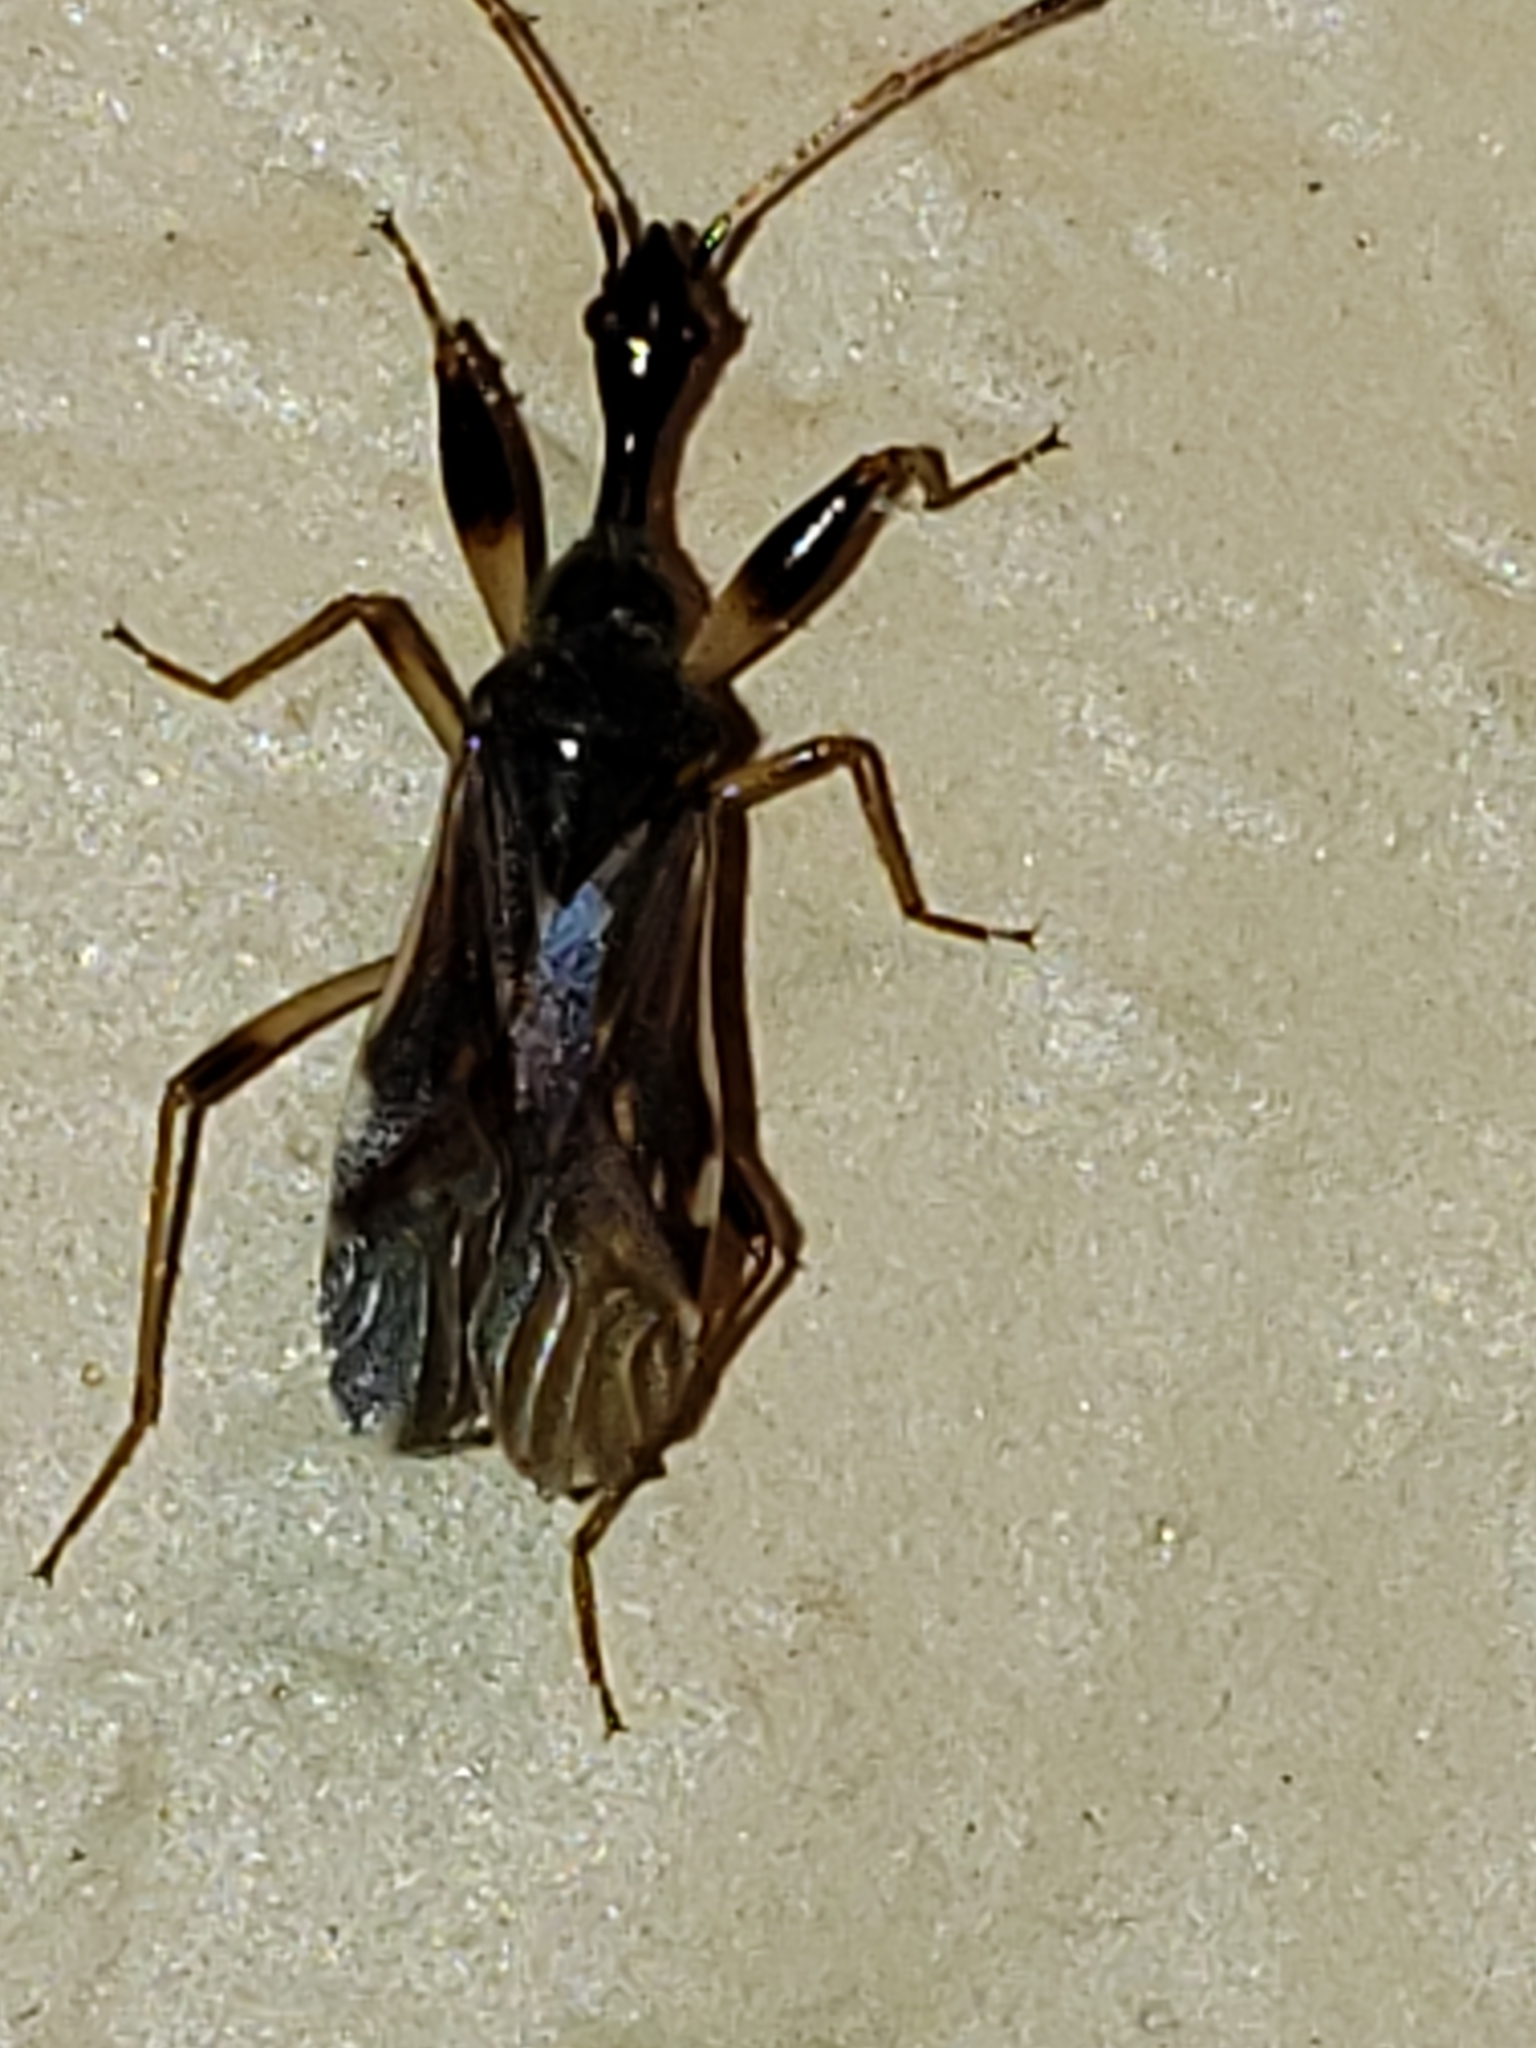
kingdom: Animalia
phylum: Arthropoda
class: Insecta
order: Hemiptera
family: Rhyparochromidae
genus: Myodocha
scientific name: Myodocha serripes
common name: Long-necked seed bug
